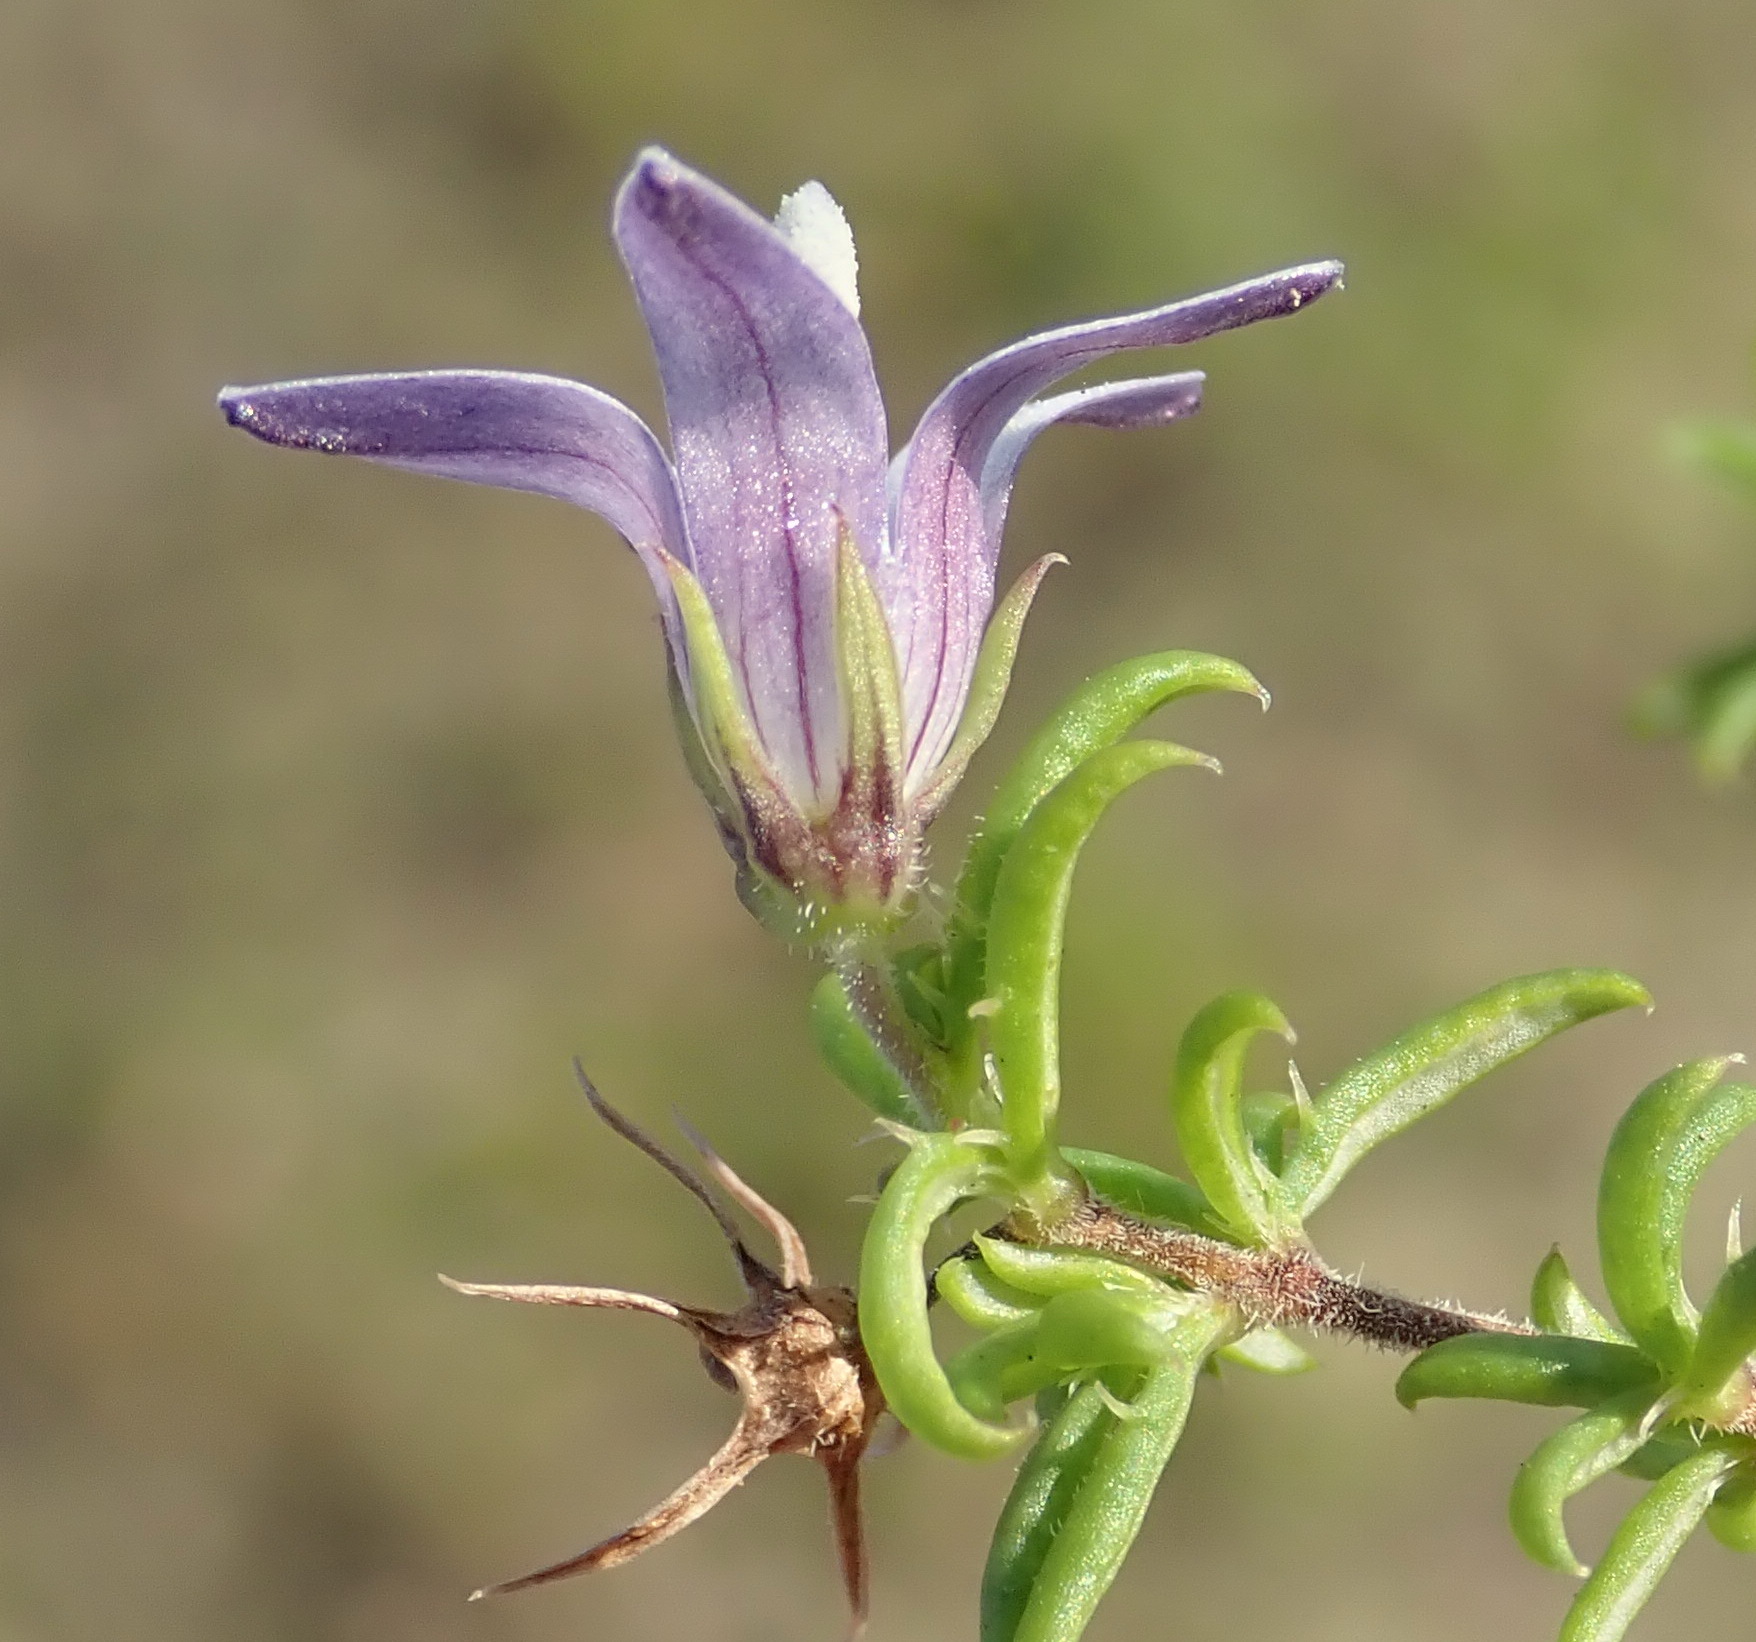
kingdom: Plantae
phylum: Tracheophyta
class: Magnoliopsida
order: Asterales
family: Campanulaceae
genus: Wahlenbergia
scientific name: Wahlenbergia thunbergii
